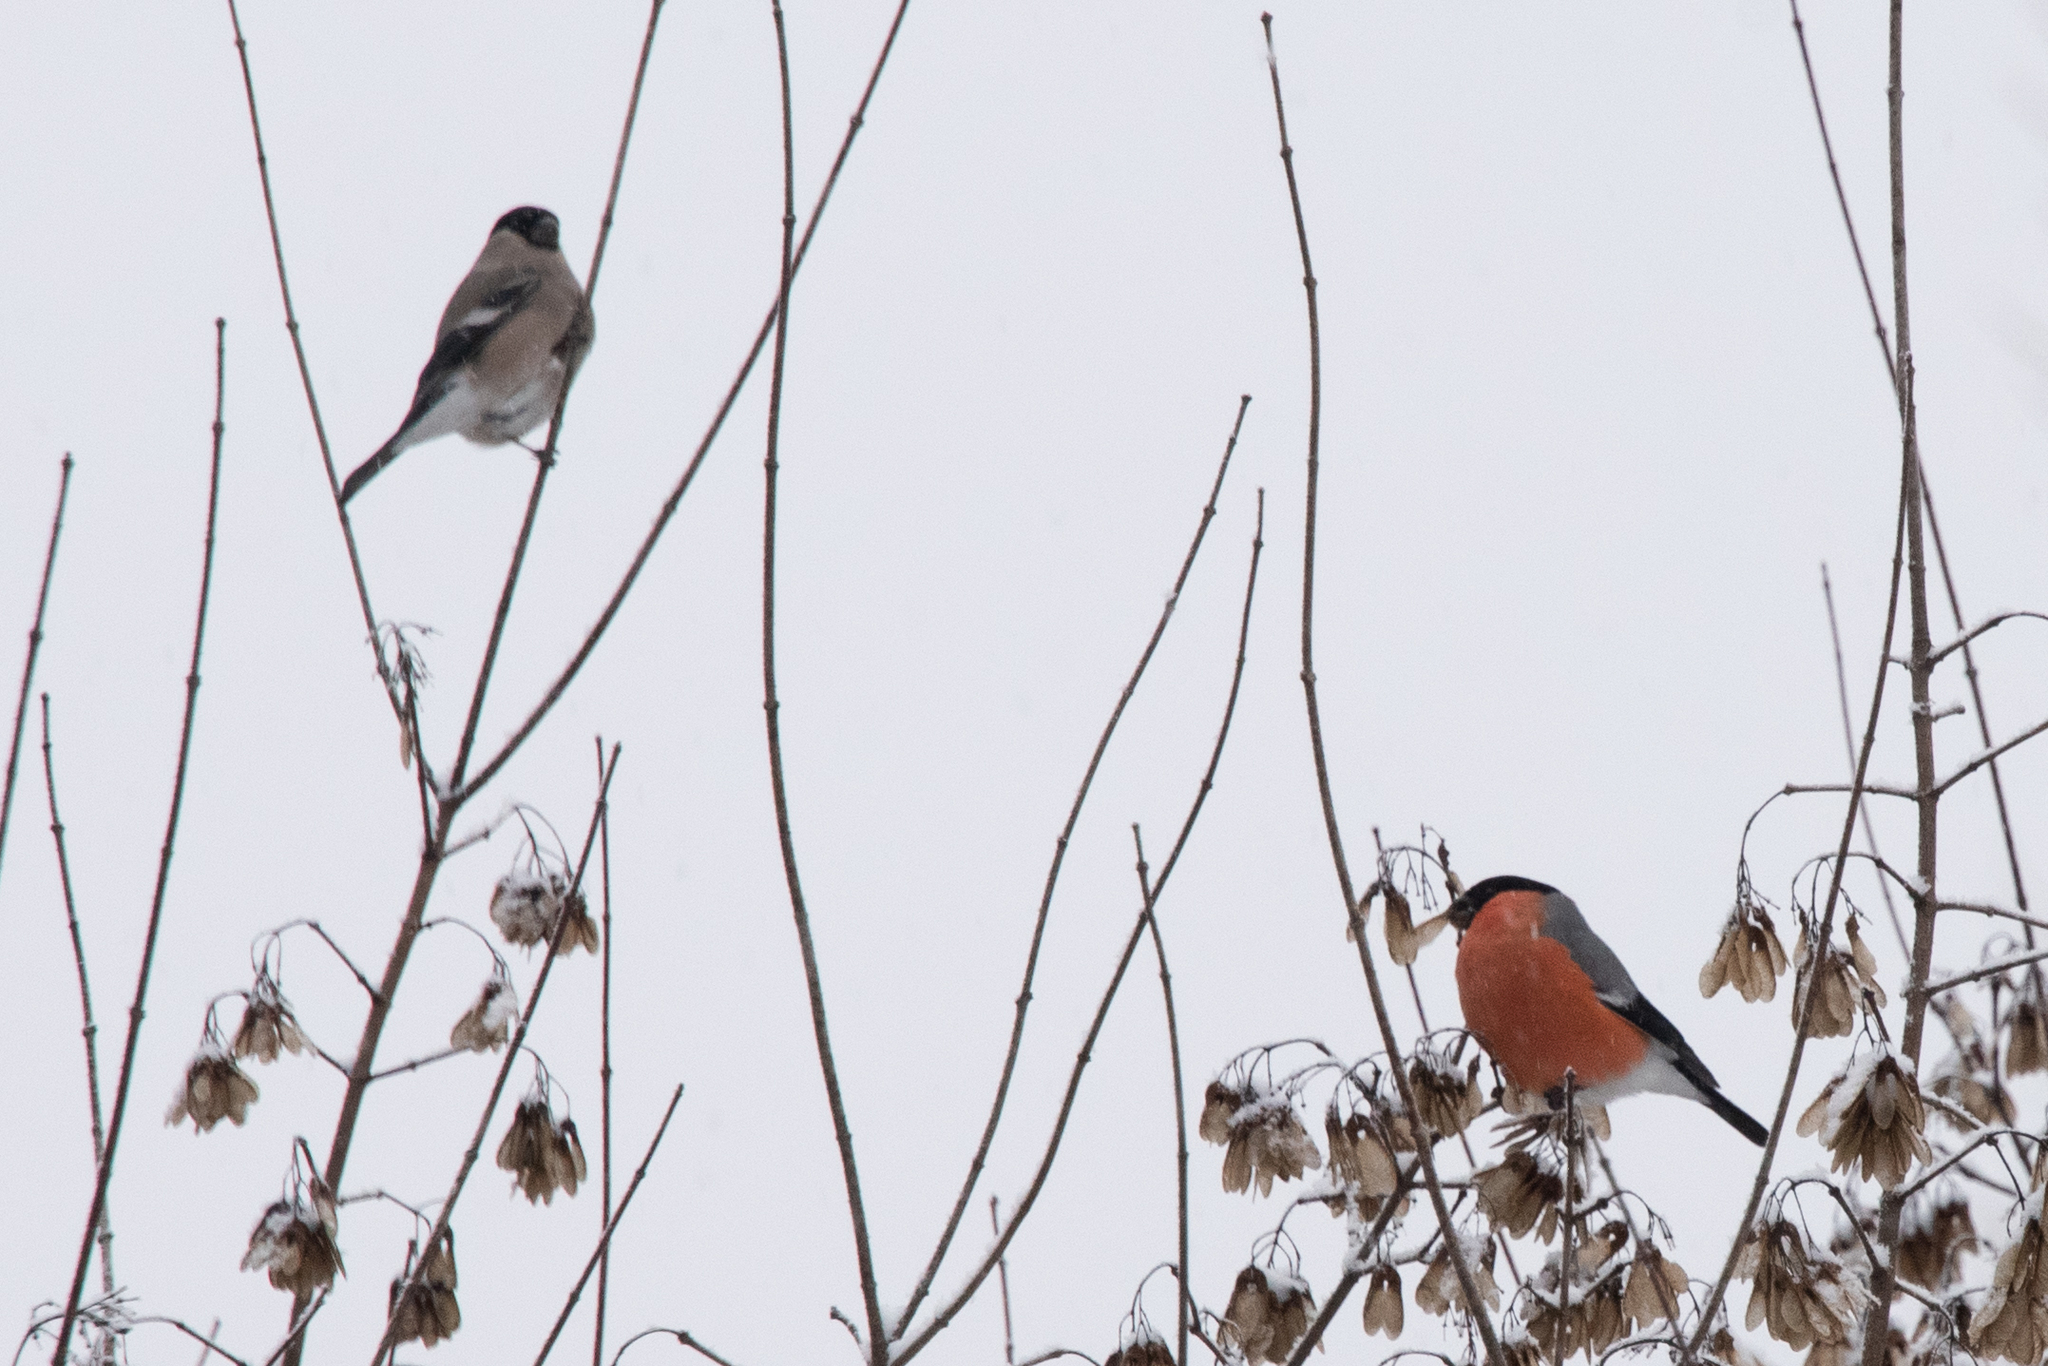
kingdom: Animalia
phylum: Chordata
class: Aves
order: Passeriformes
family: Fringillidae
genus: Pyrrhula
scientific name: Pyrrhula pyrrhula
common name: Eurasian bullfinch
